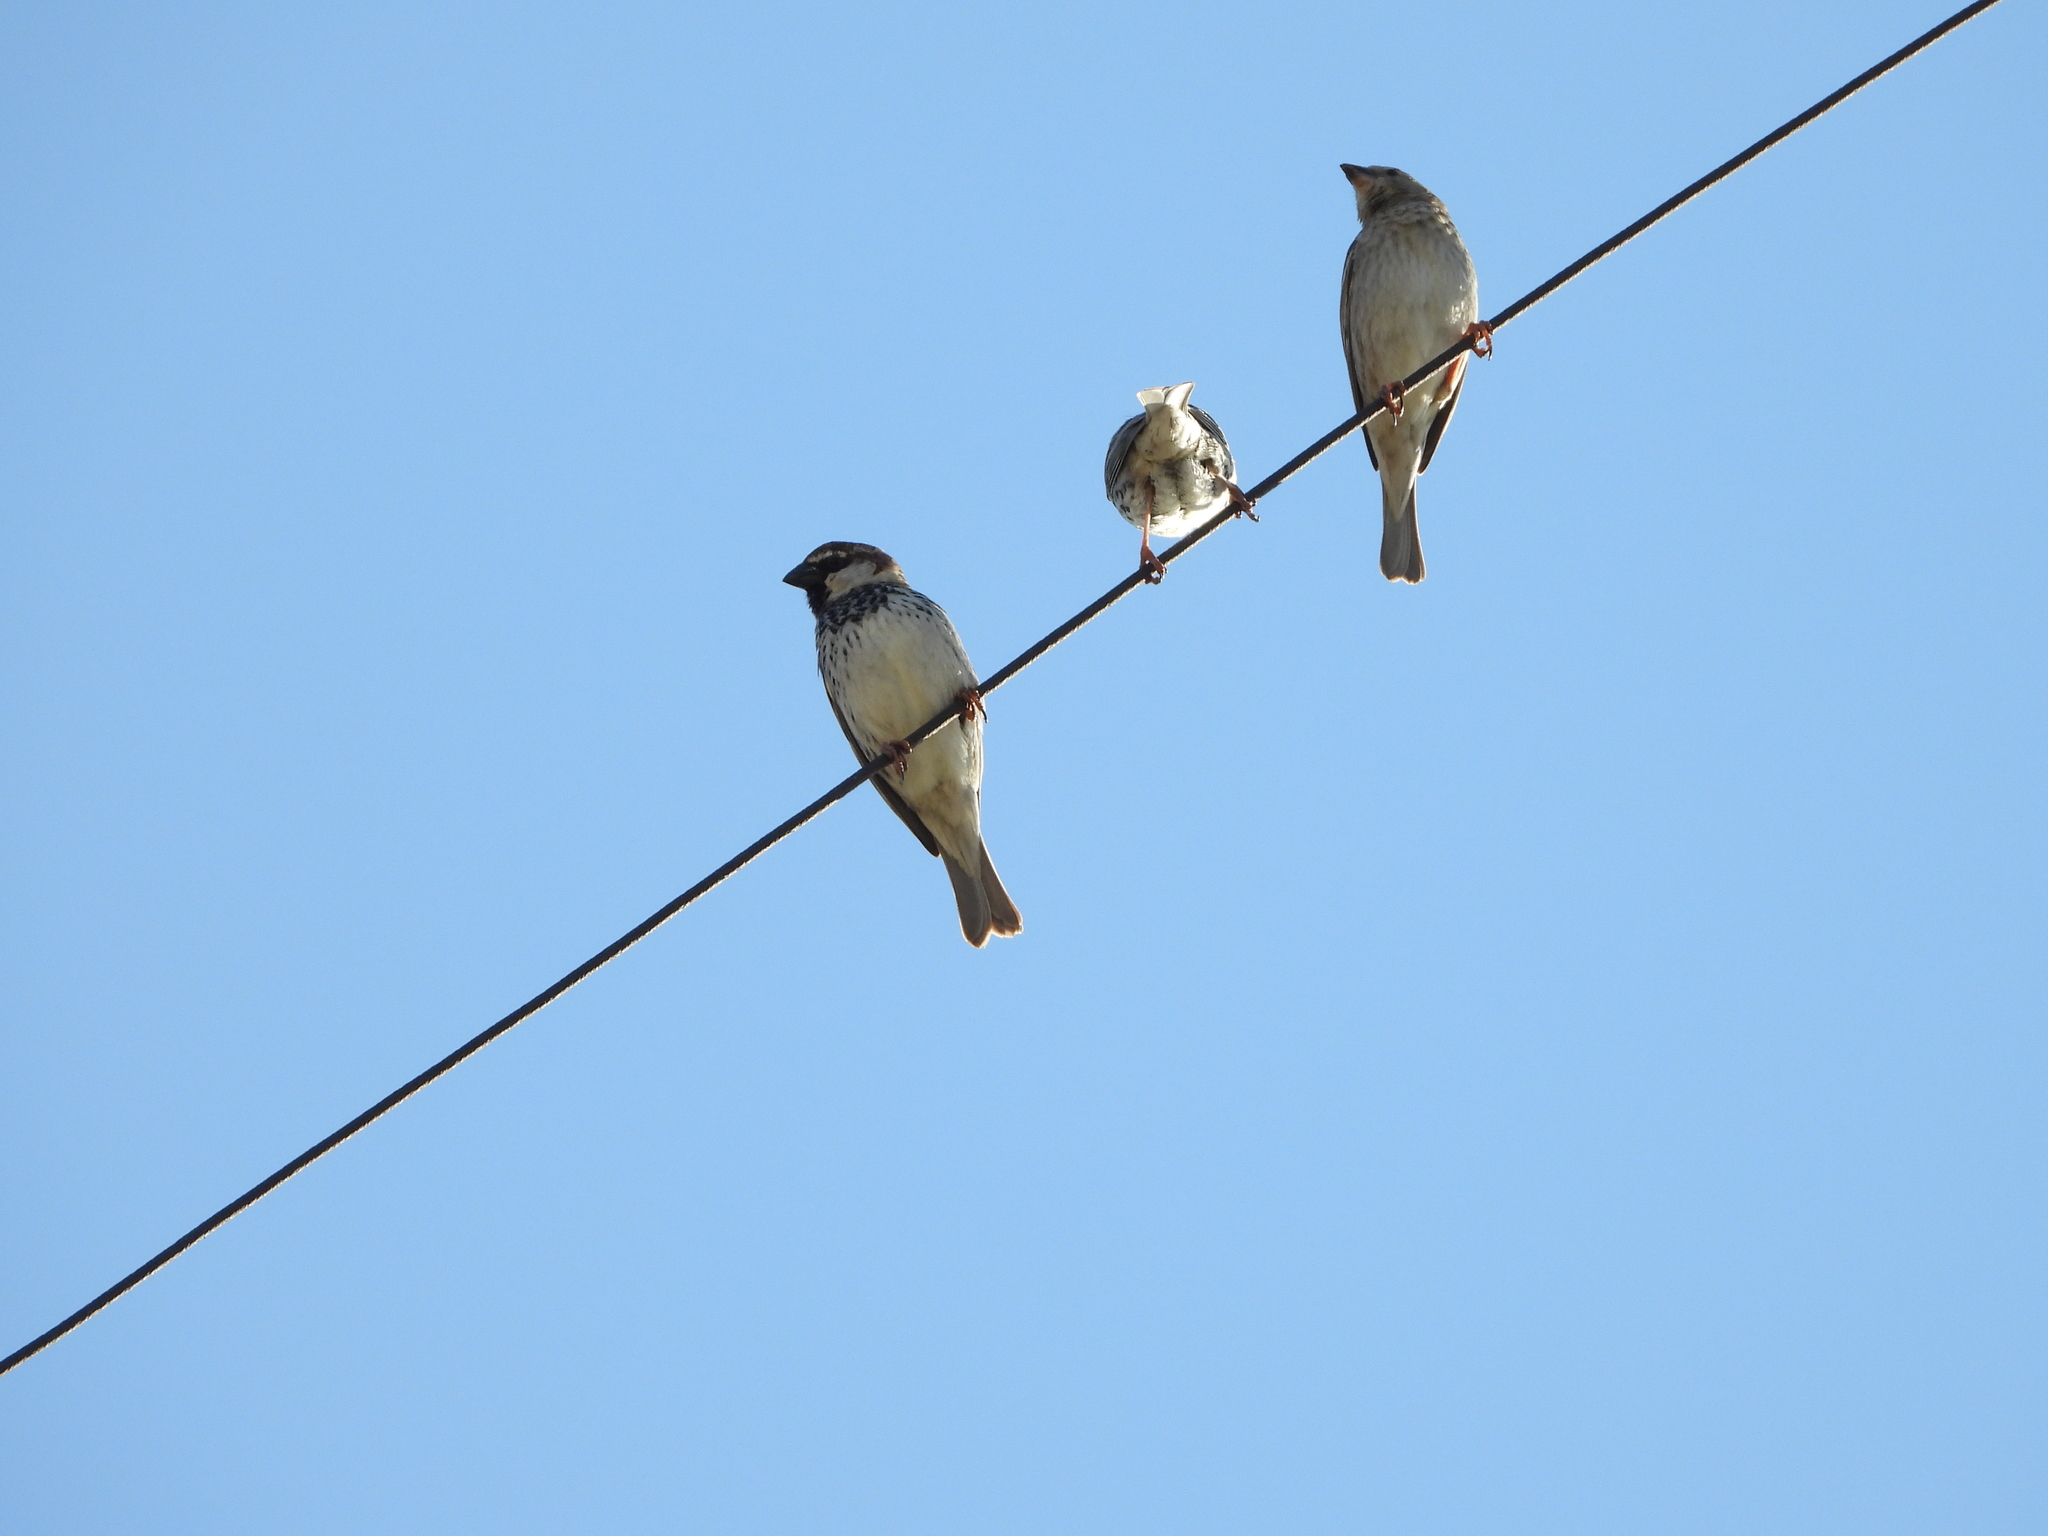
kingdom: Animalia
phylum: Chordata
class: Aves
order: Passeriformes
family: Passeridae
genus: Passer
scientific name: Passer hispaniolensis
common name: Spanish sparrow
